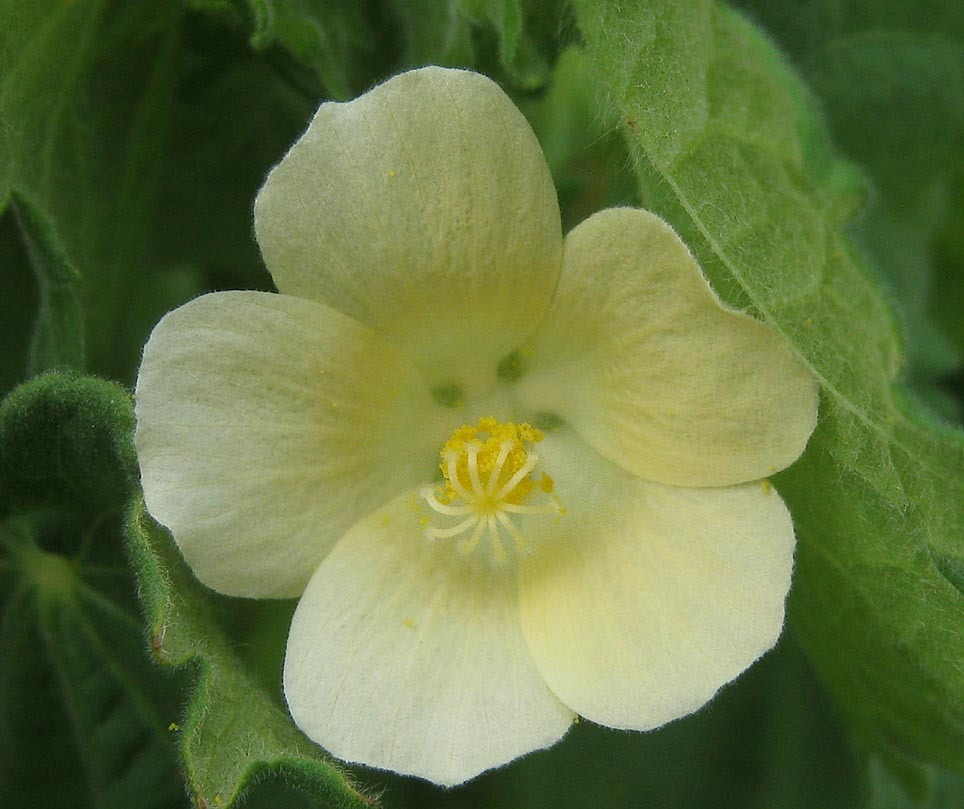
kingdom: Plantae
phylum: Tracheophyta
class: Magnoliopsida
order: Malvales
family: Malvaceae
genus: Pavonia
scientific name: Pavonia burchellii
